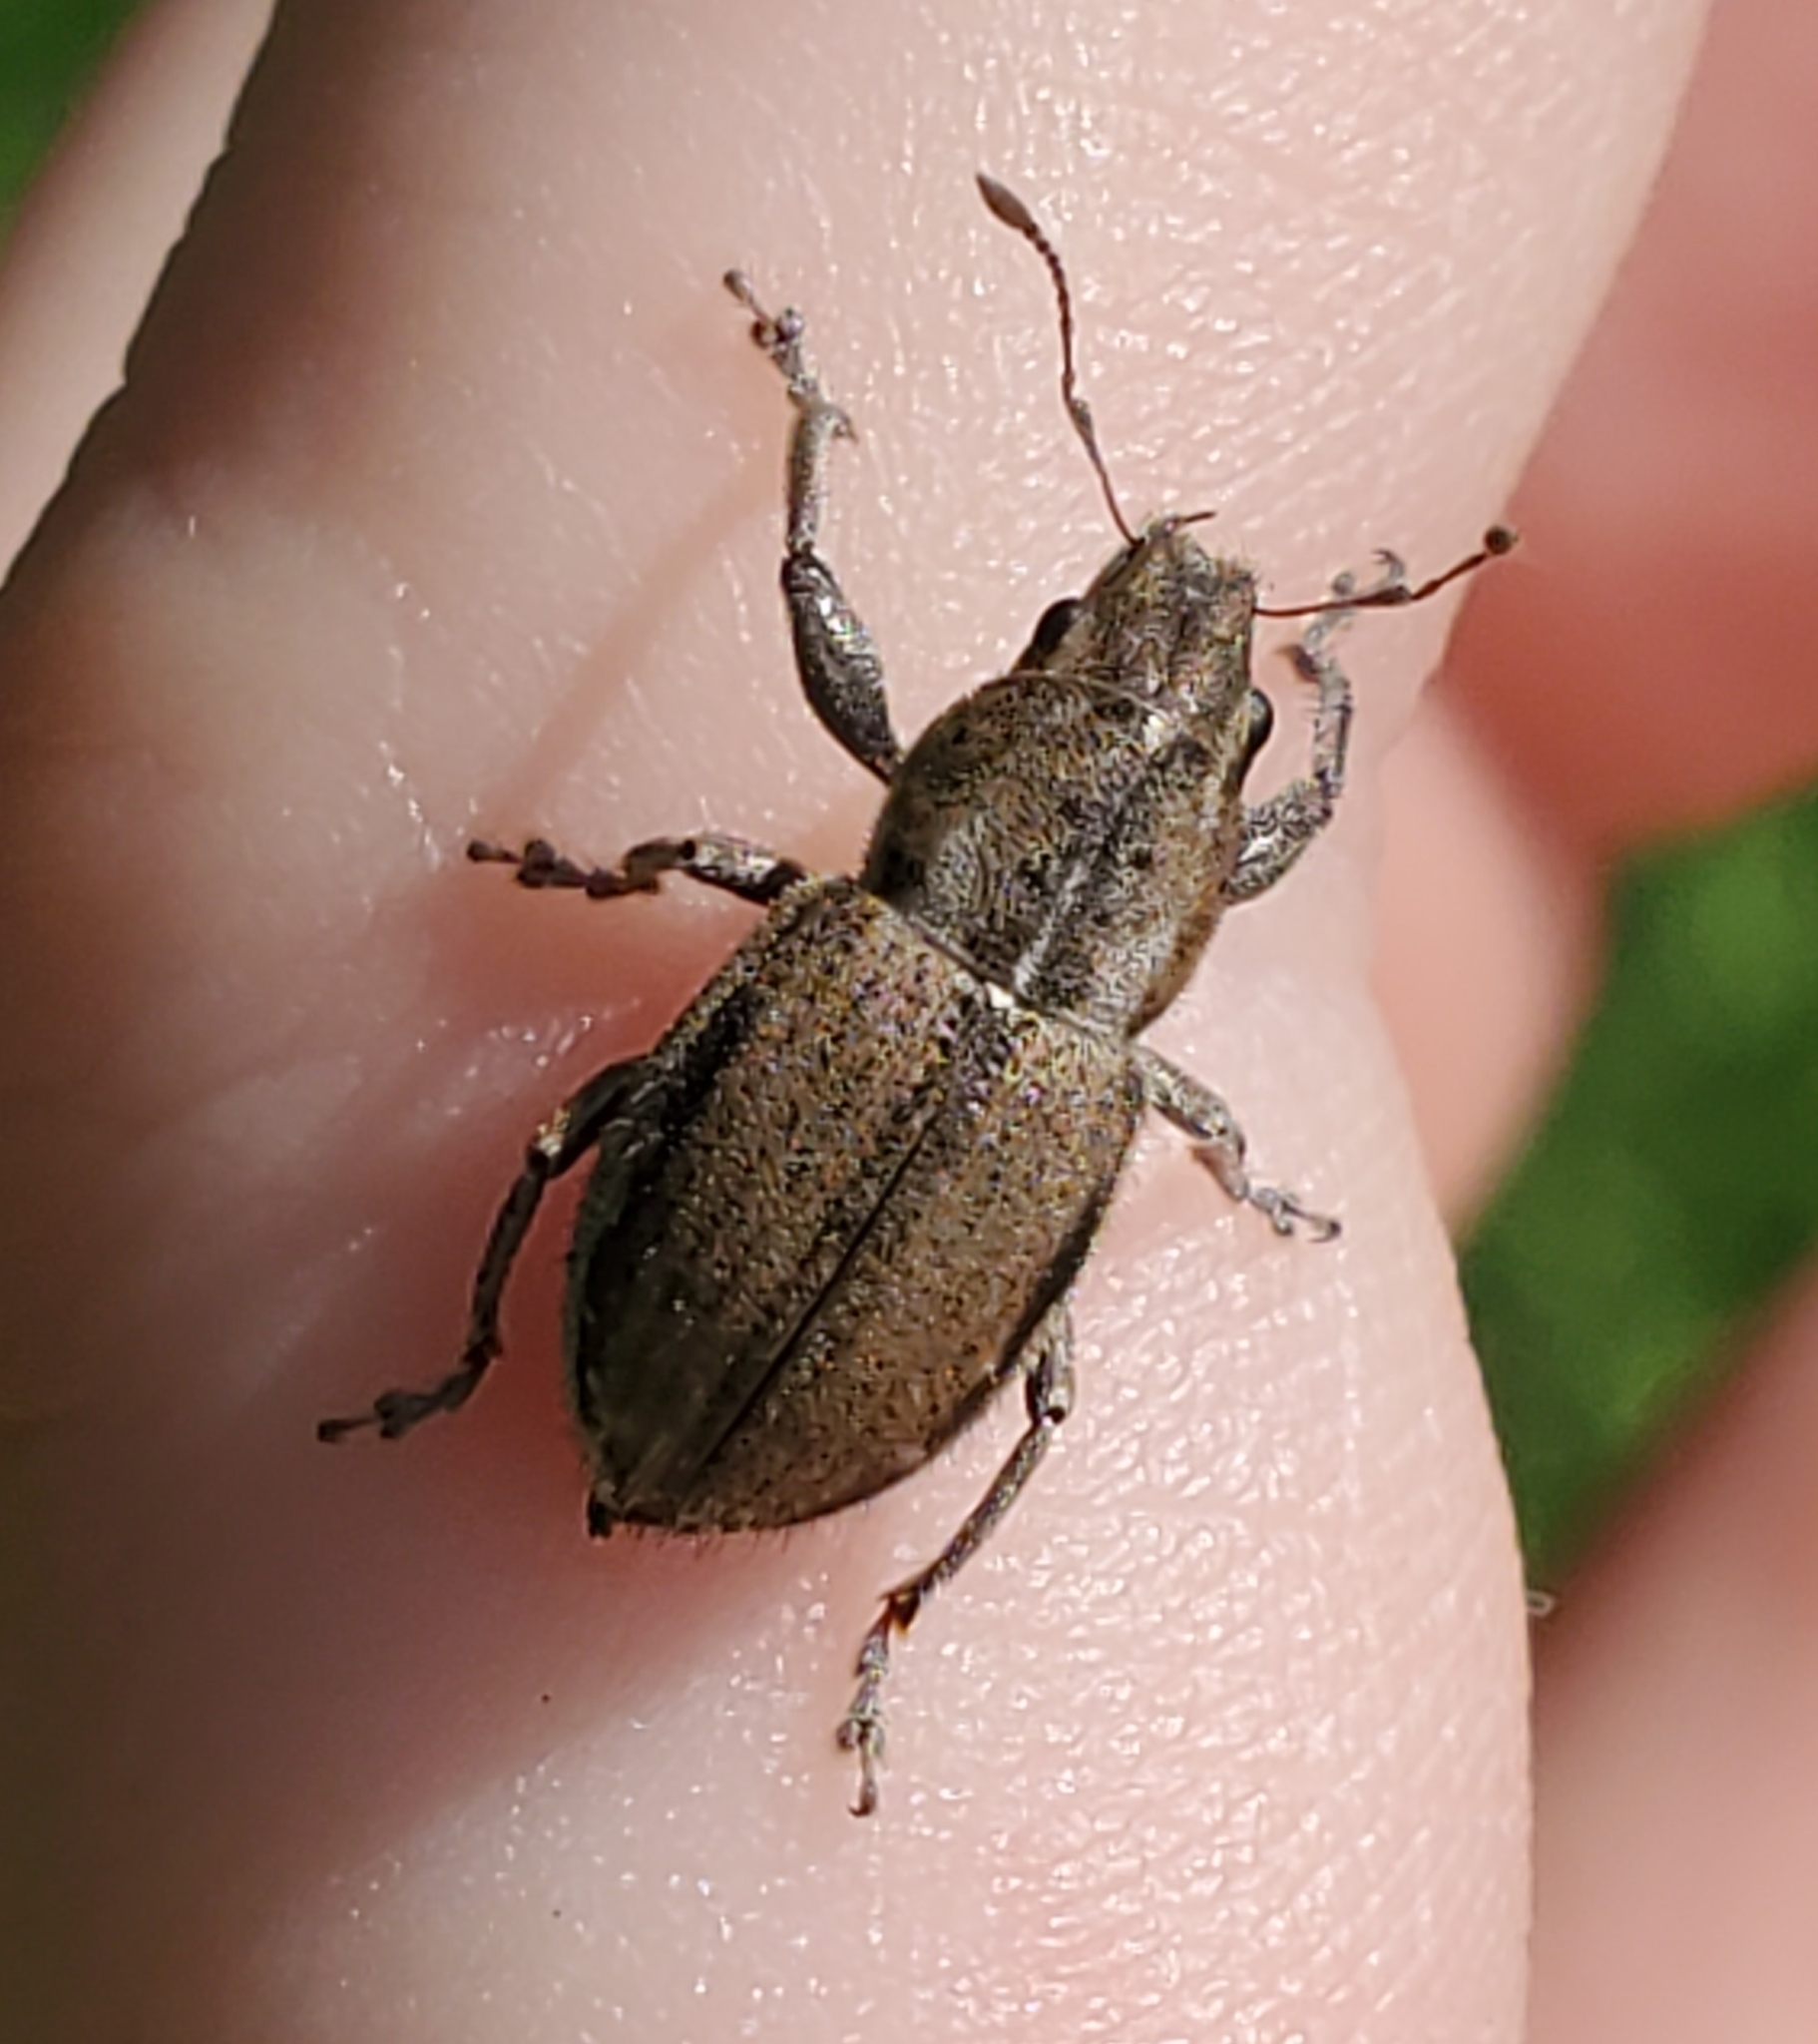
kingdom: Animalia
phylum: Arthropoda
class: Insecta
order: Coleoptera
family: Curculionidae
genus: Naupactus
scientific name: Naupactus peregrinus
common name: Whitefringed beetle
